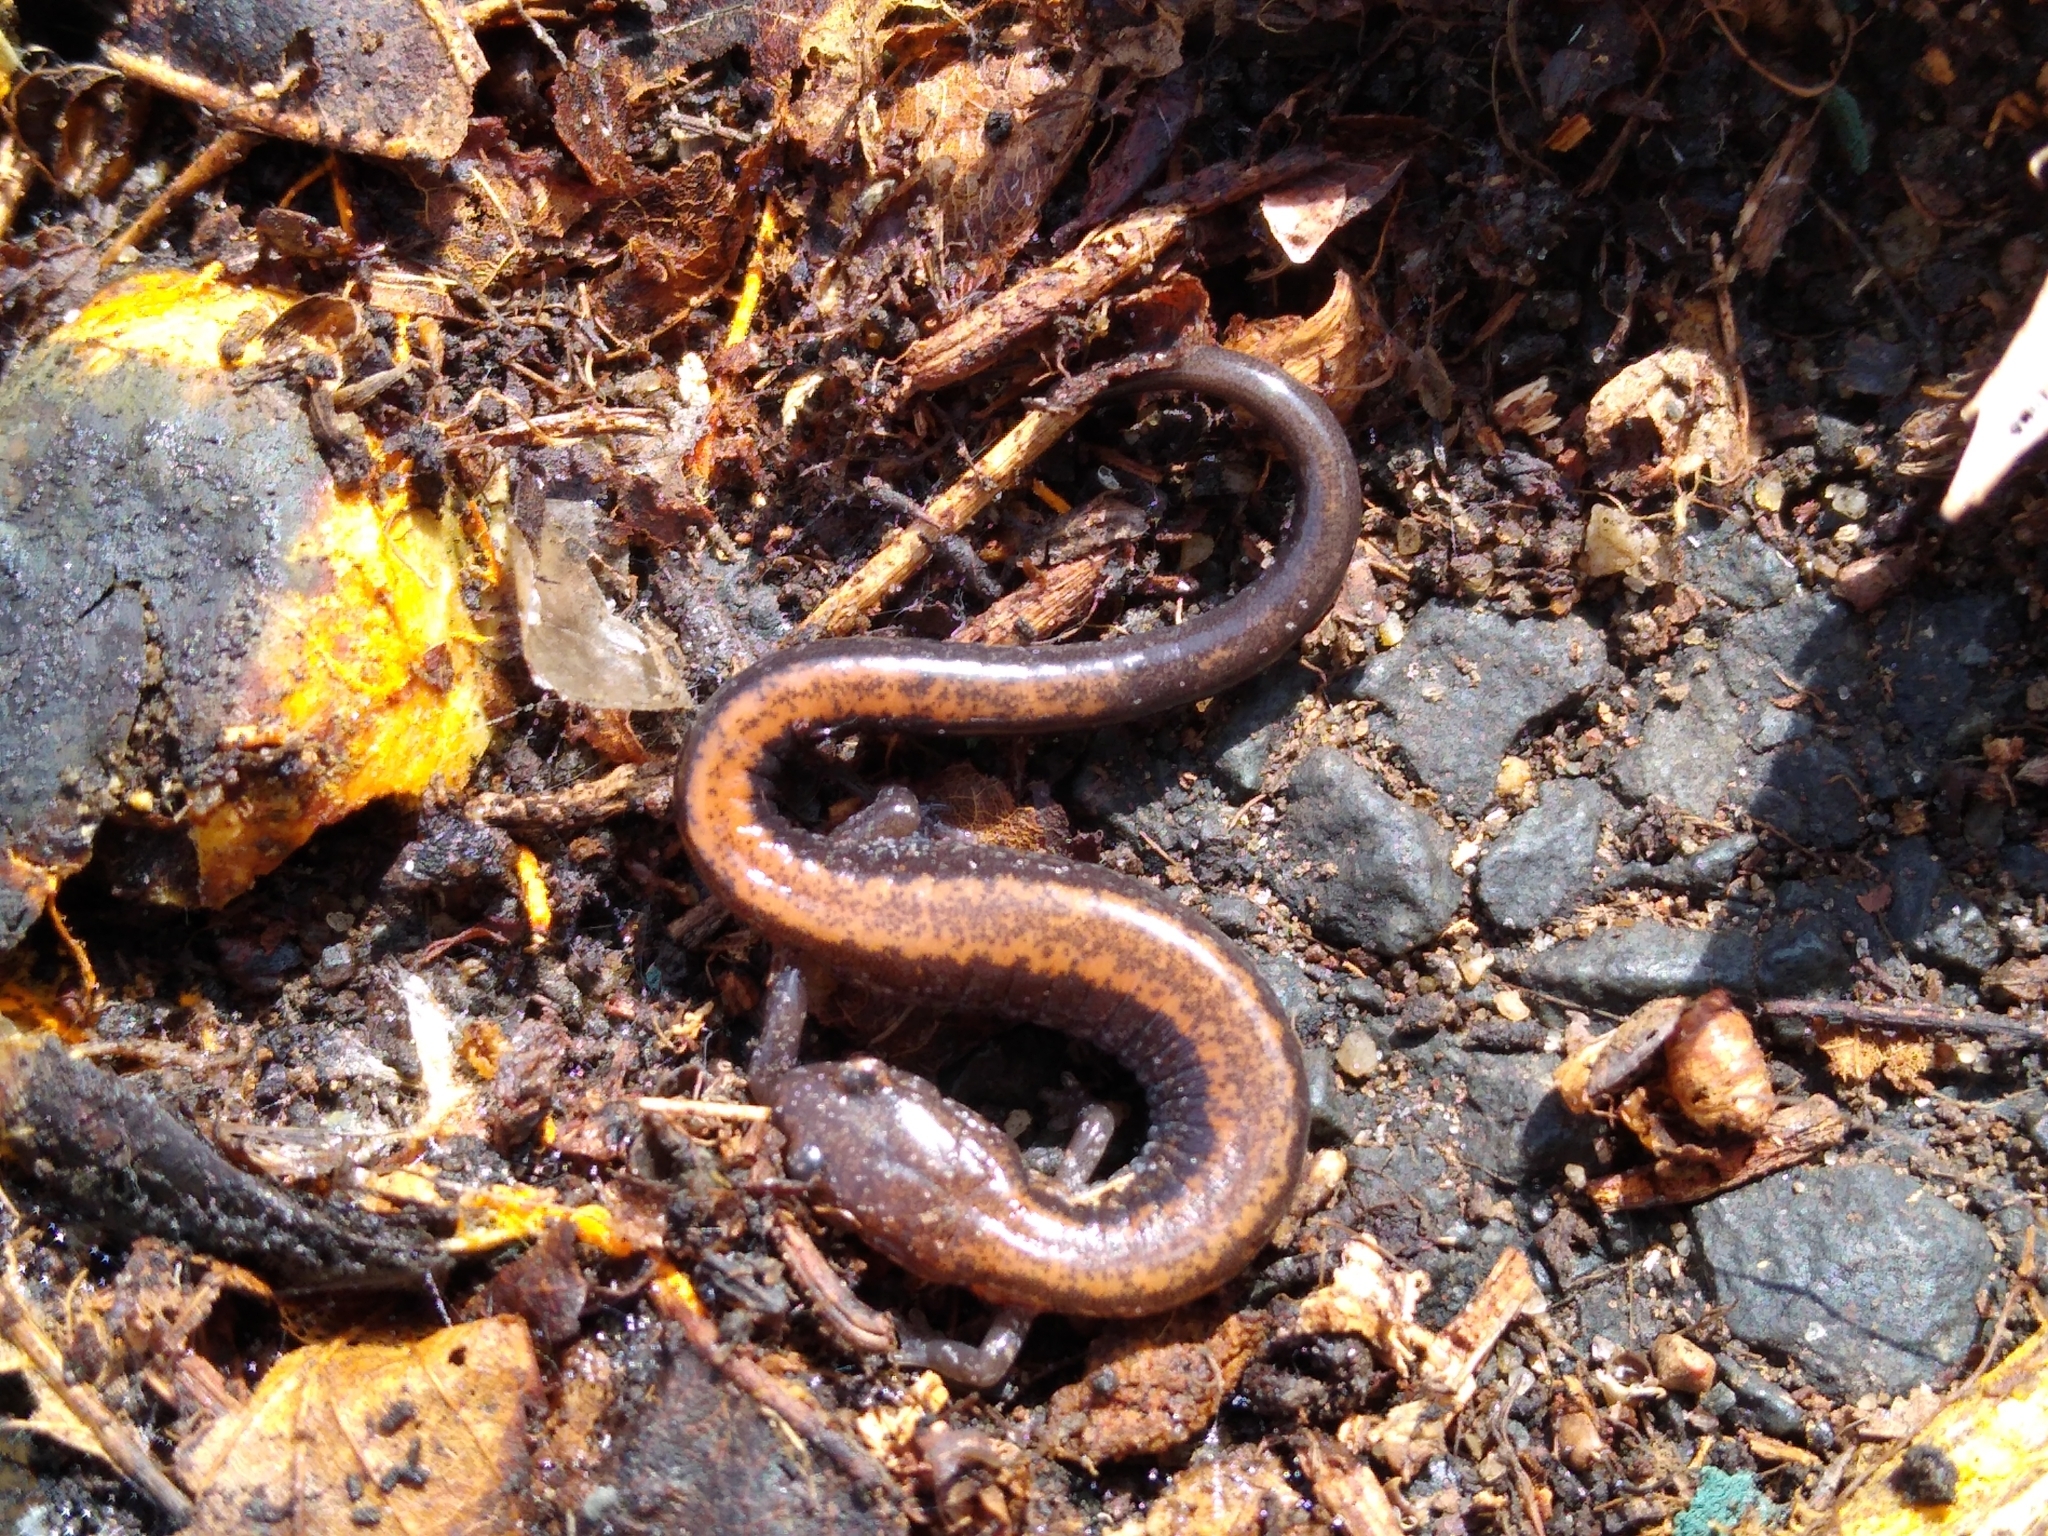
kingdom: Animalia
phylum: Chordata
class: Amphibia
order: Caudata
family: Plethodontidae
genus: Plethodon
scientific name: Plethodon cinereus
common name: Redback salamander
